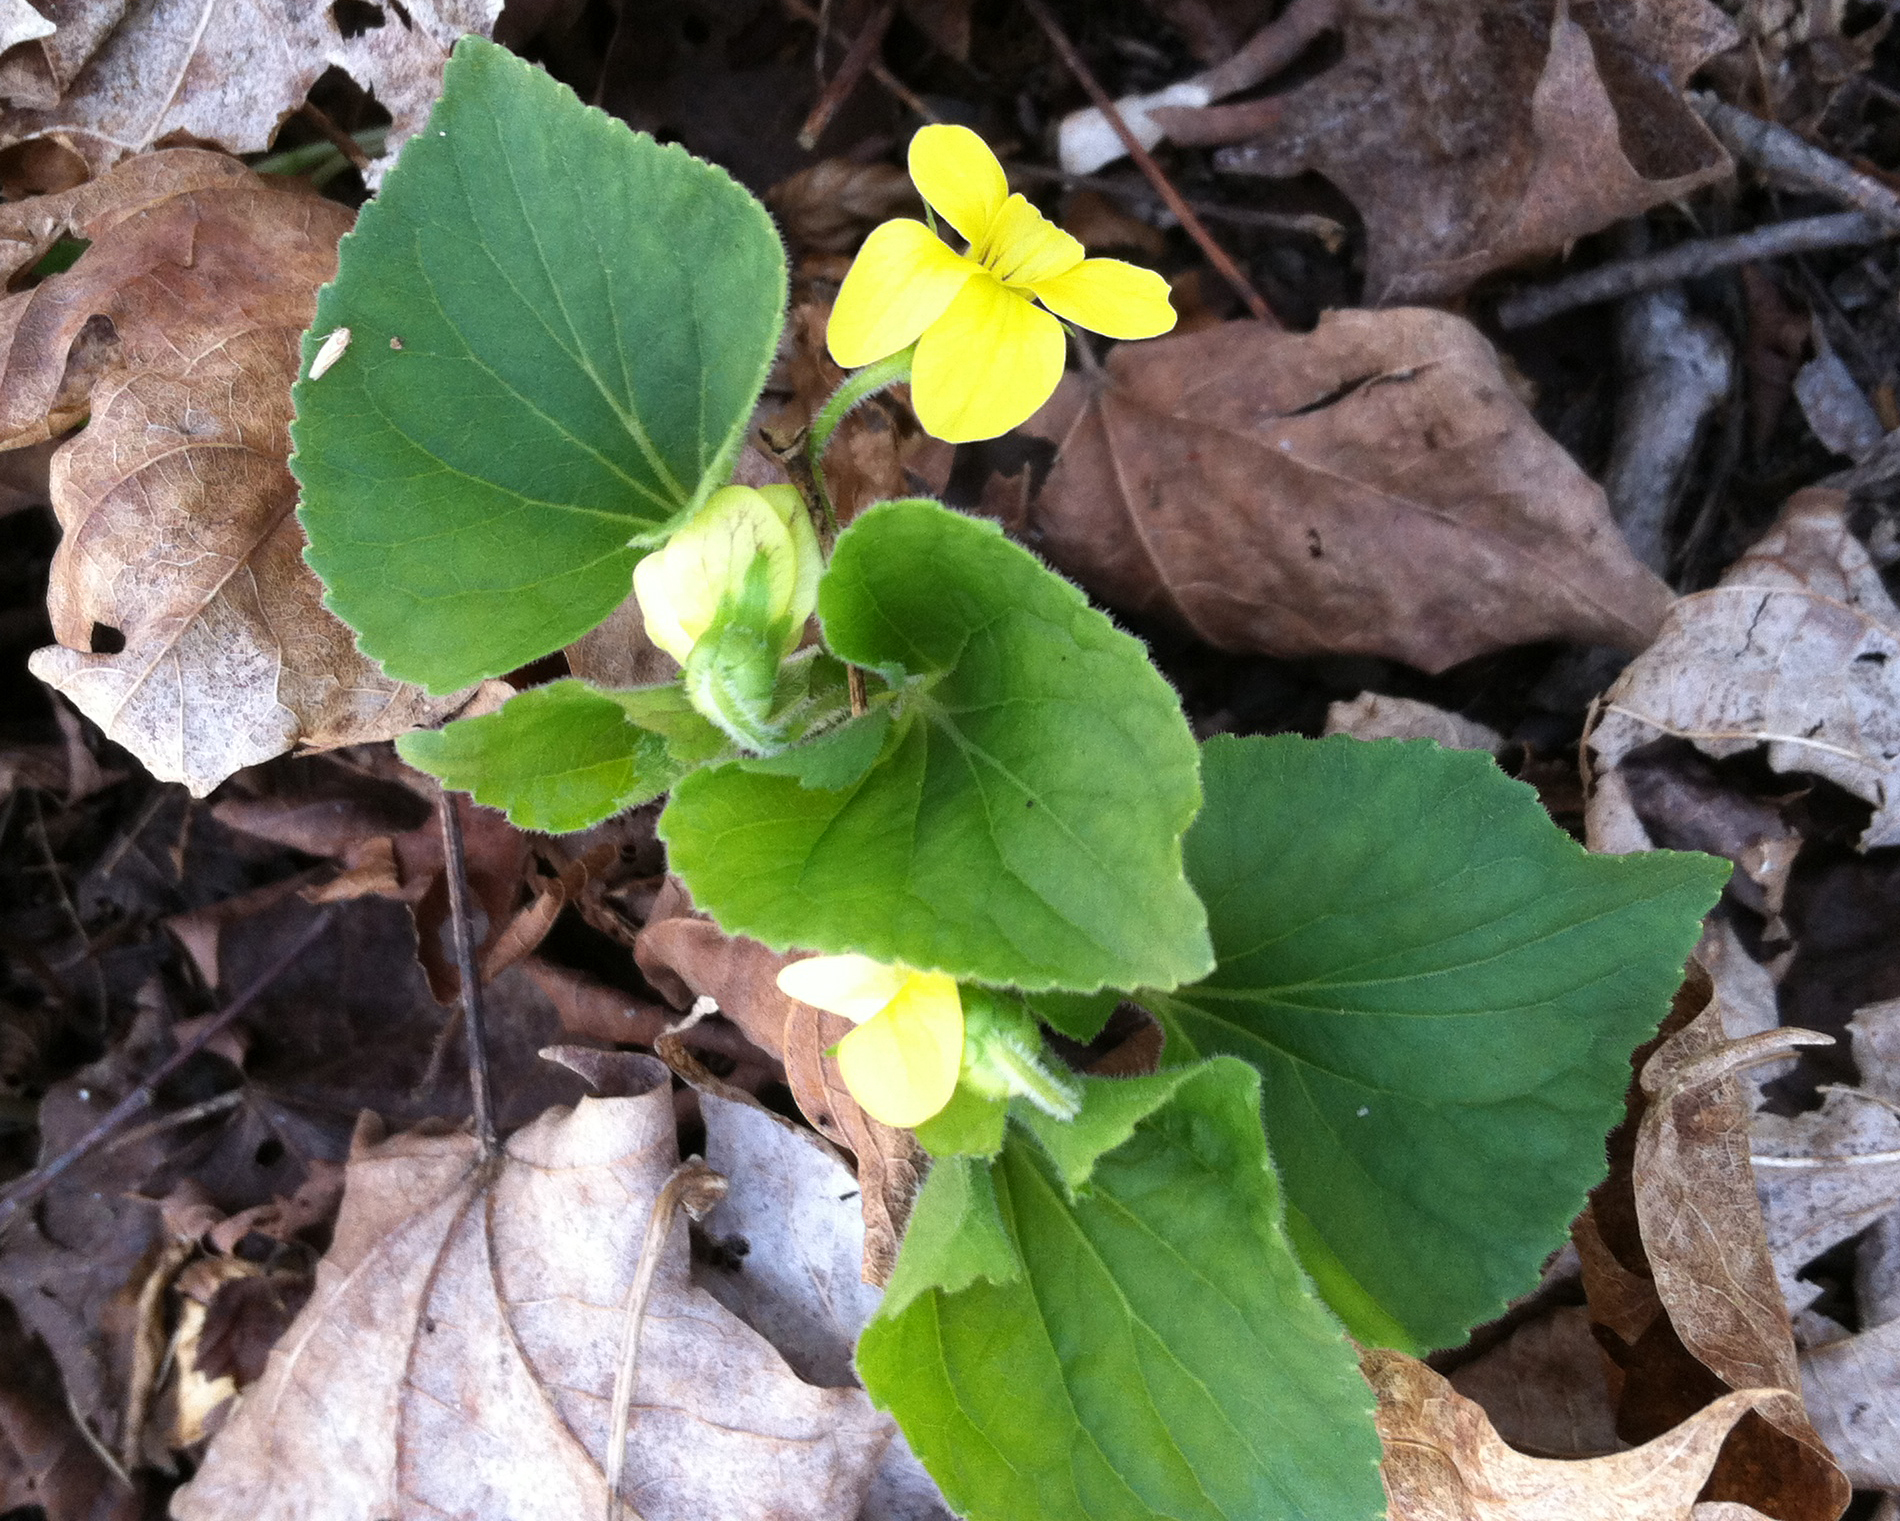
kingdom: Plantae
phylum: Tracheophyta
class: Magnoliopsida
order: Malpighiales
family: Violaceae
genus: Viola
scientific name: Viola eriocarpa
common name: Smooth yellow violet
